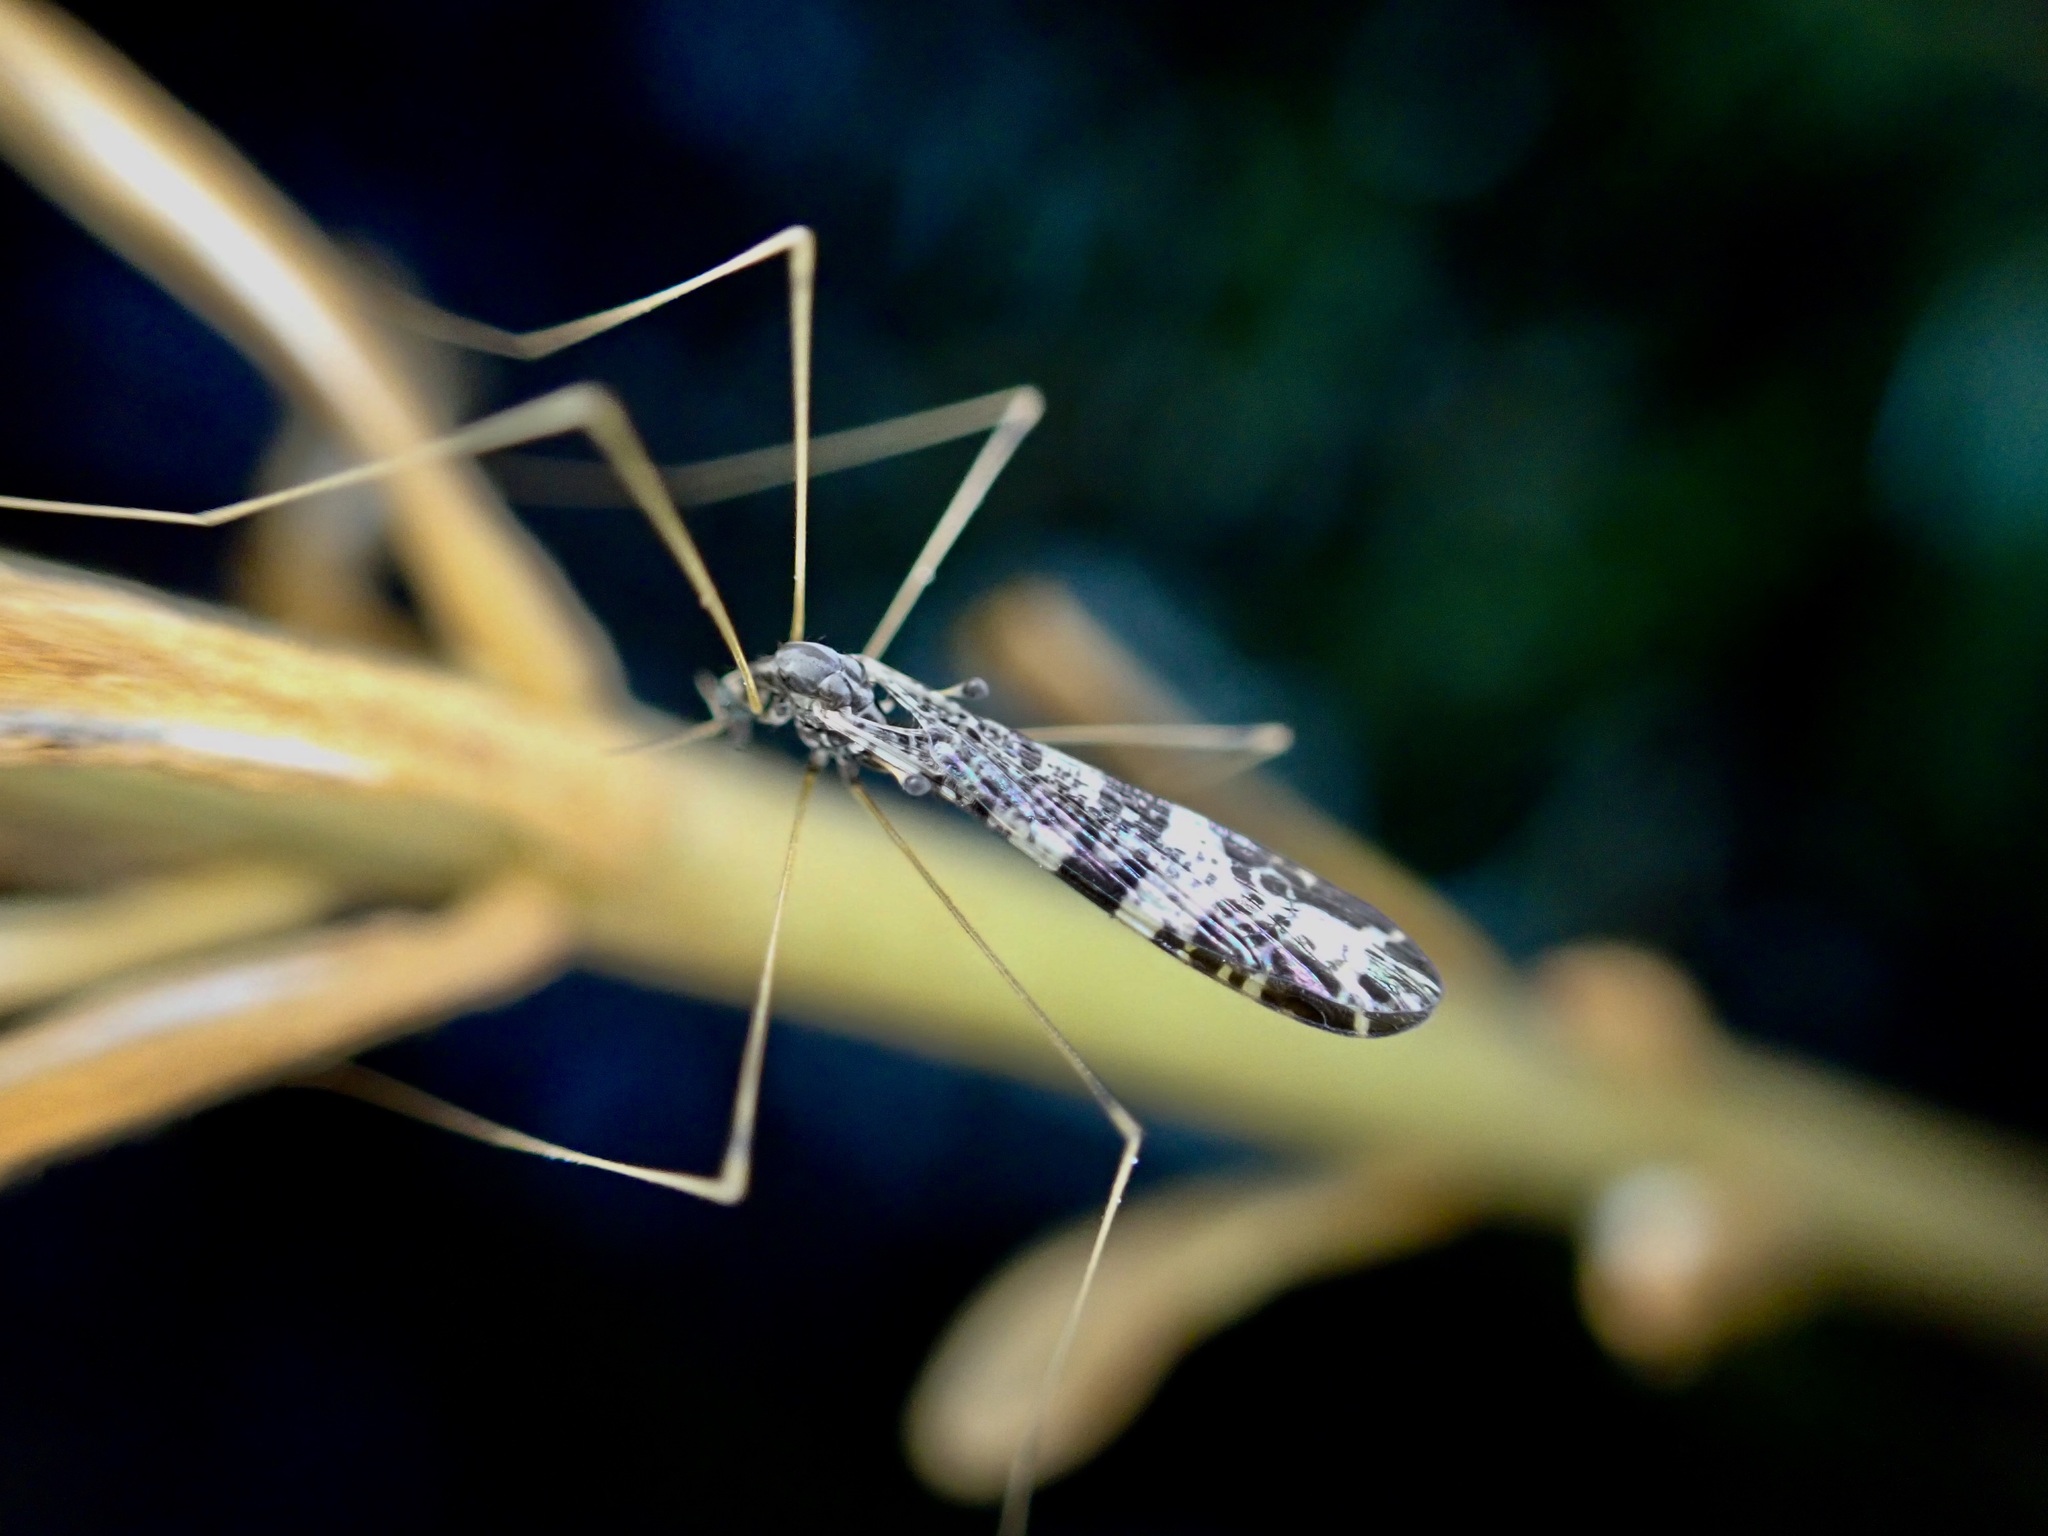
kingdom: Animalia
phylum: Arthropoda
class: Insecta
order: Diptera
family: Limoniidae
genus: Discobola
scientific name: Discobola venustula
